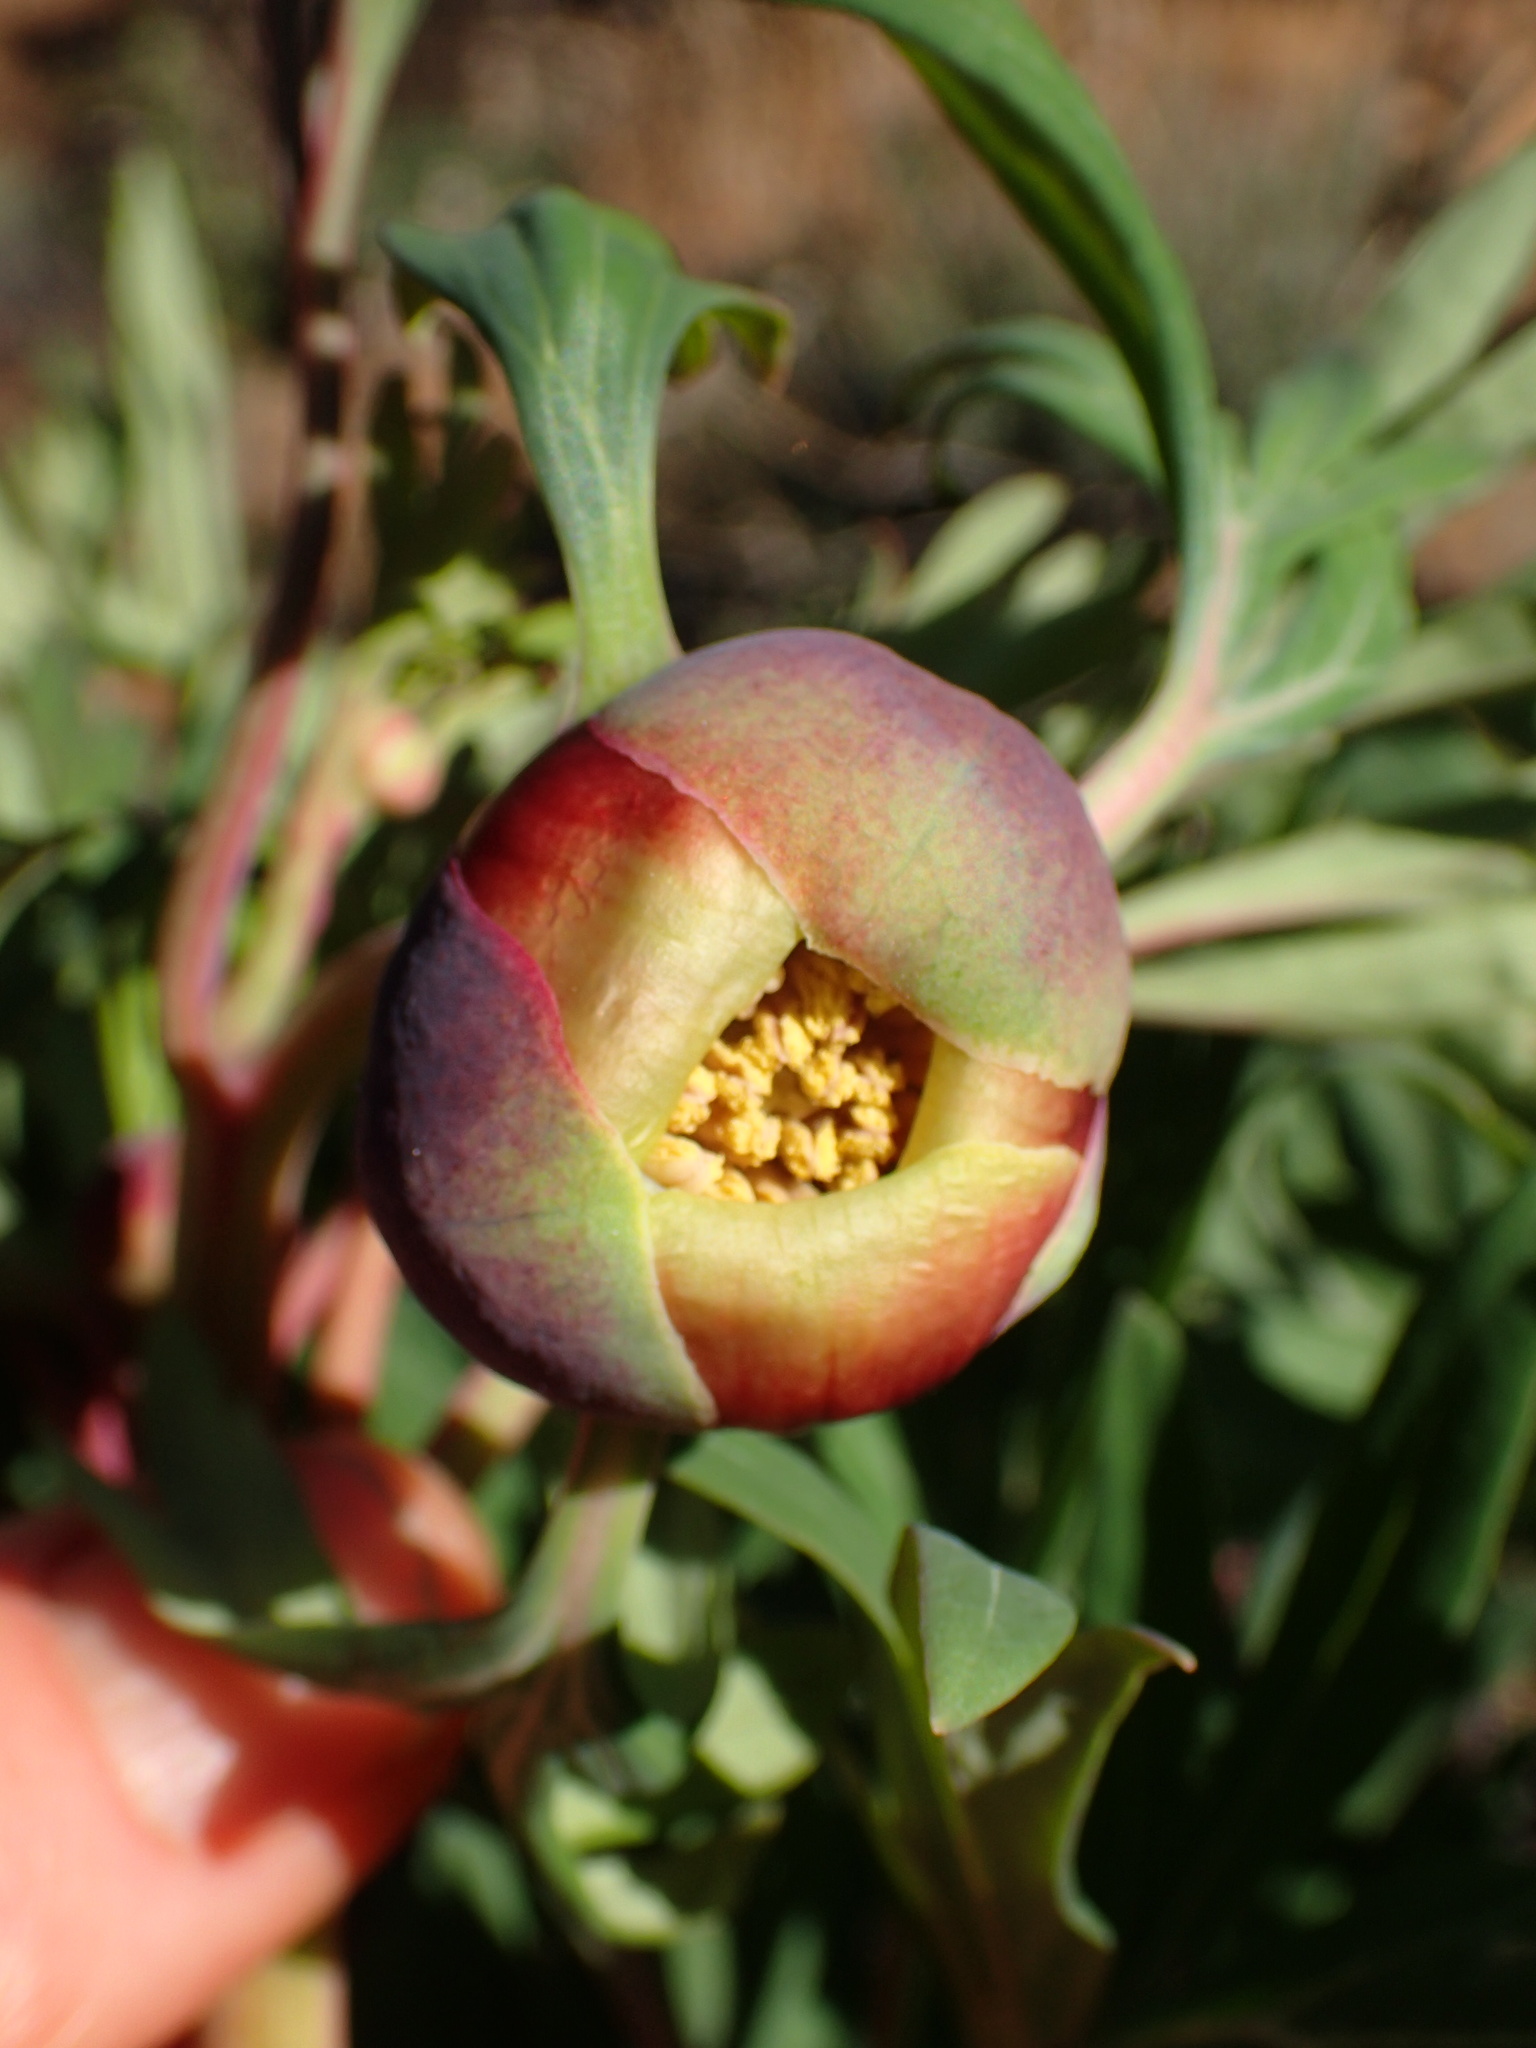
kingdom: Plantae
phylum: Tracheophyta
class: Magnoliopsida
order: Saxifragales
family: Paeoniaceae
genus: Paeonia
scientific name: Paeonia californica
